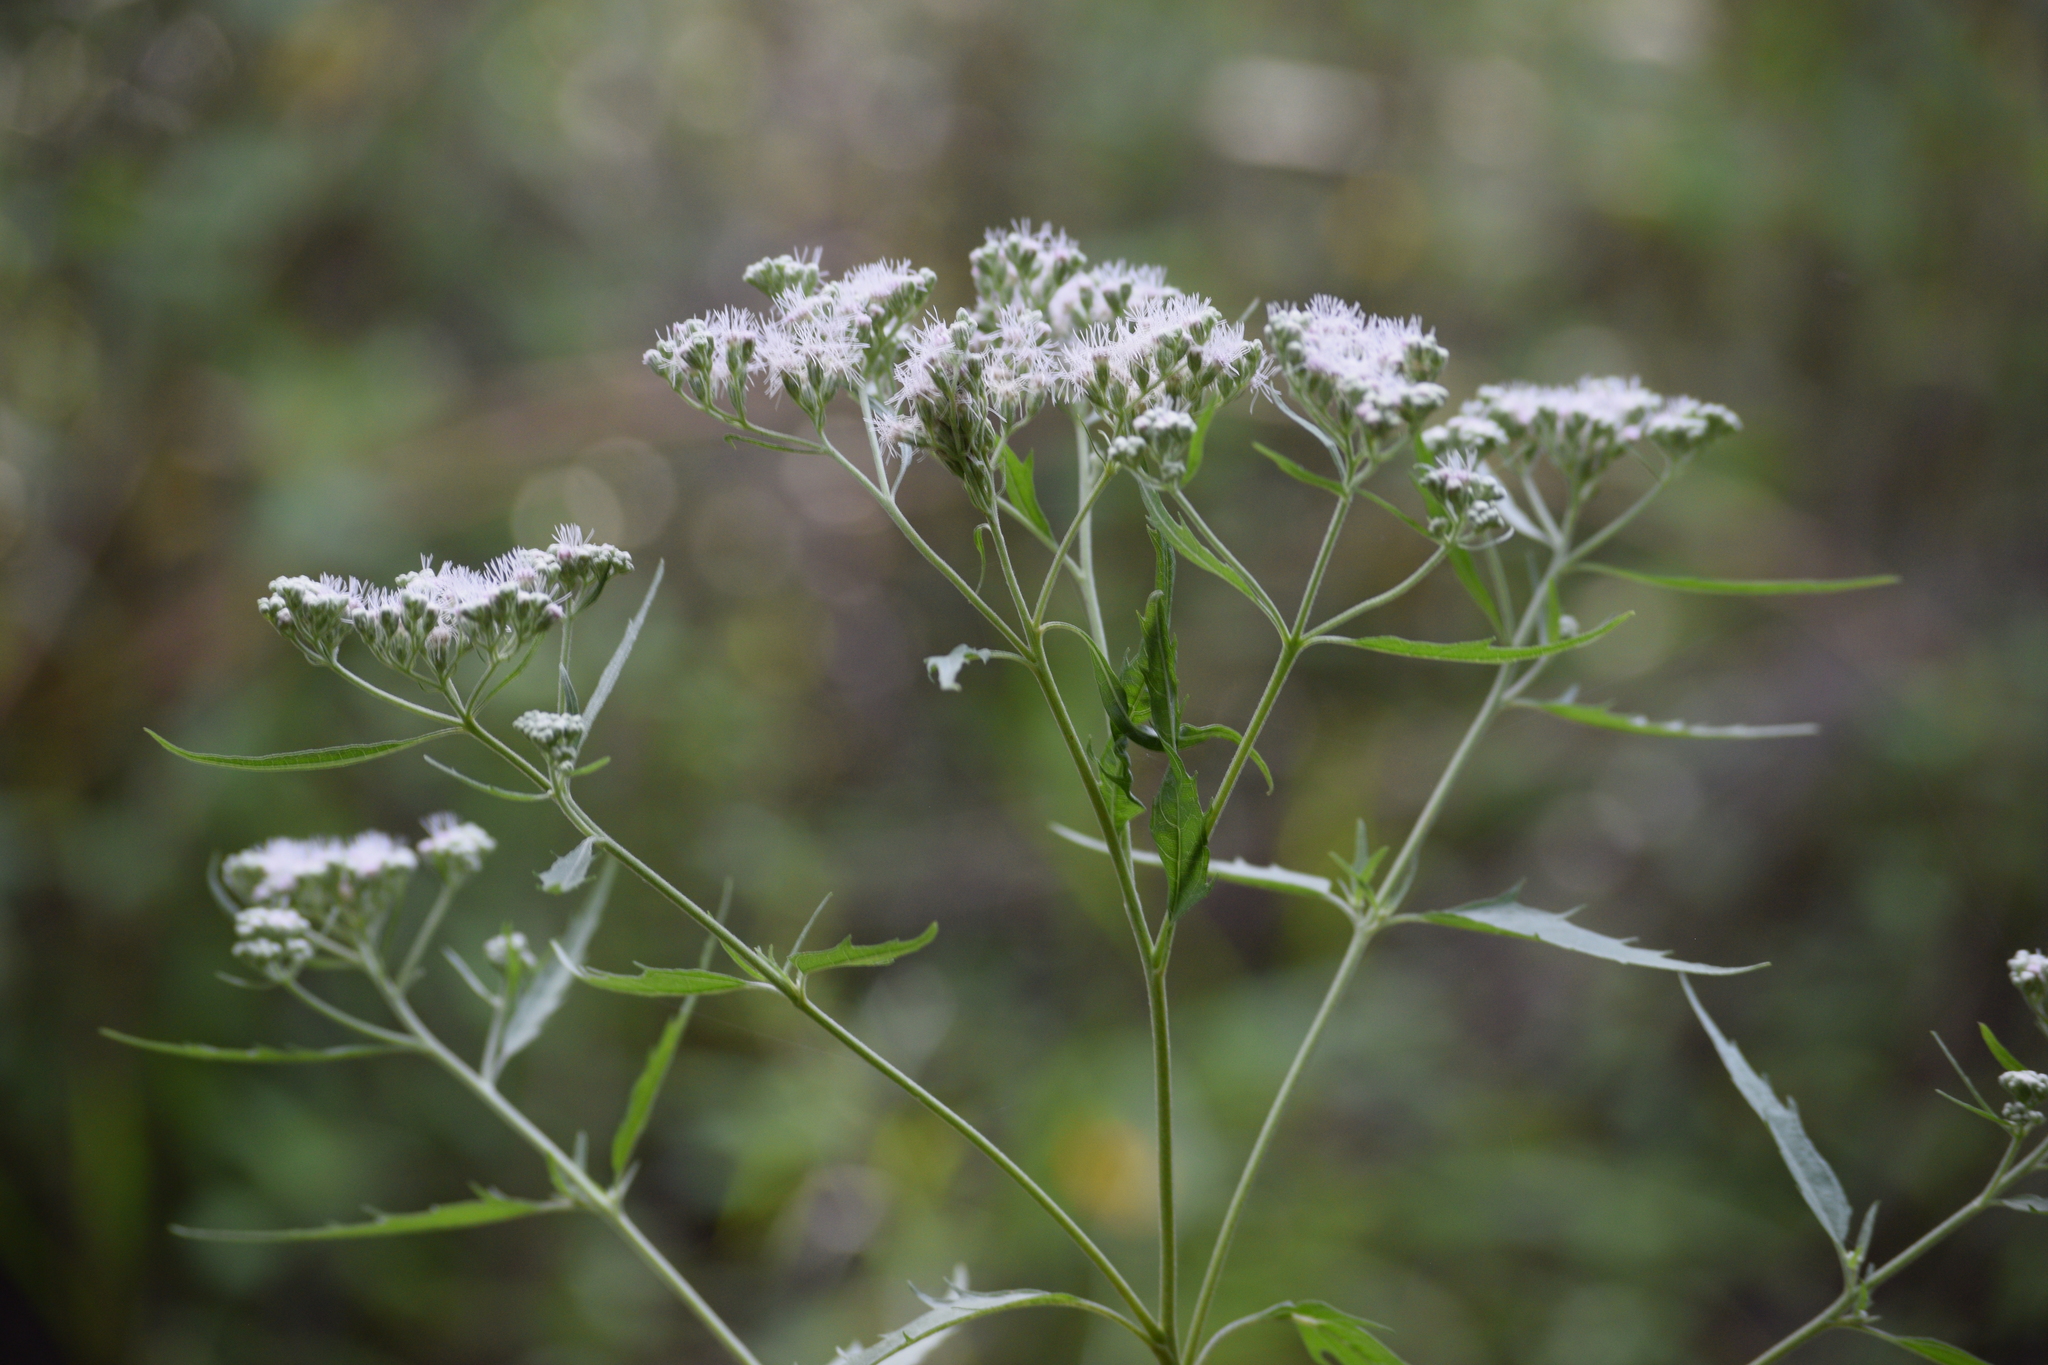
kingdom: Plantae
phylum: Tracheophyta
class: Magnoliopsida
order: Asterales
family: Asteraceae
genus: Eupatorium
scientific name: Eupatorium serotinum
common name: Late boneset
